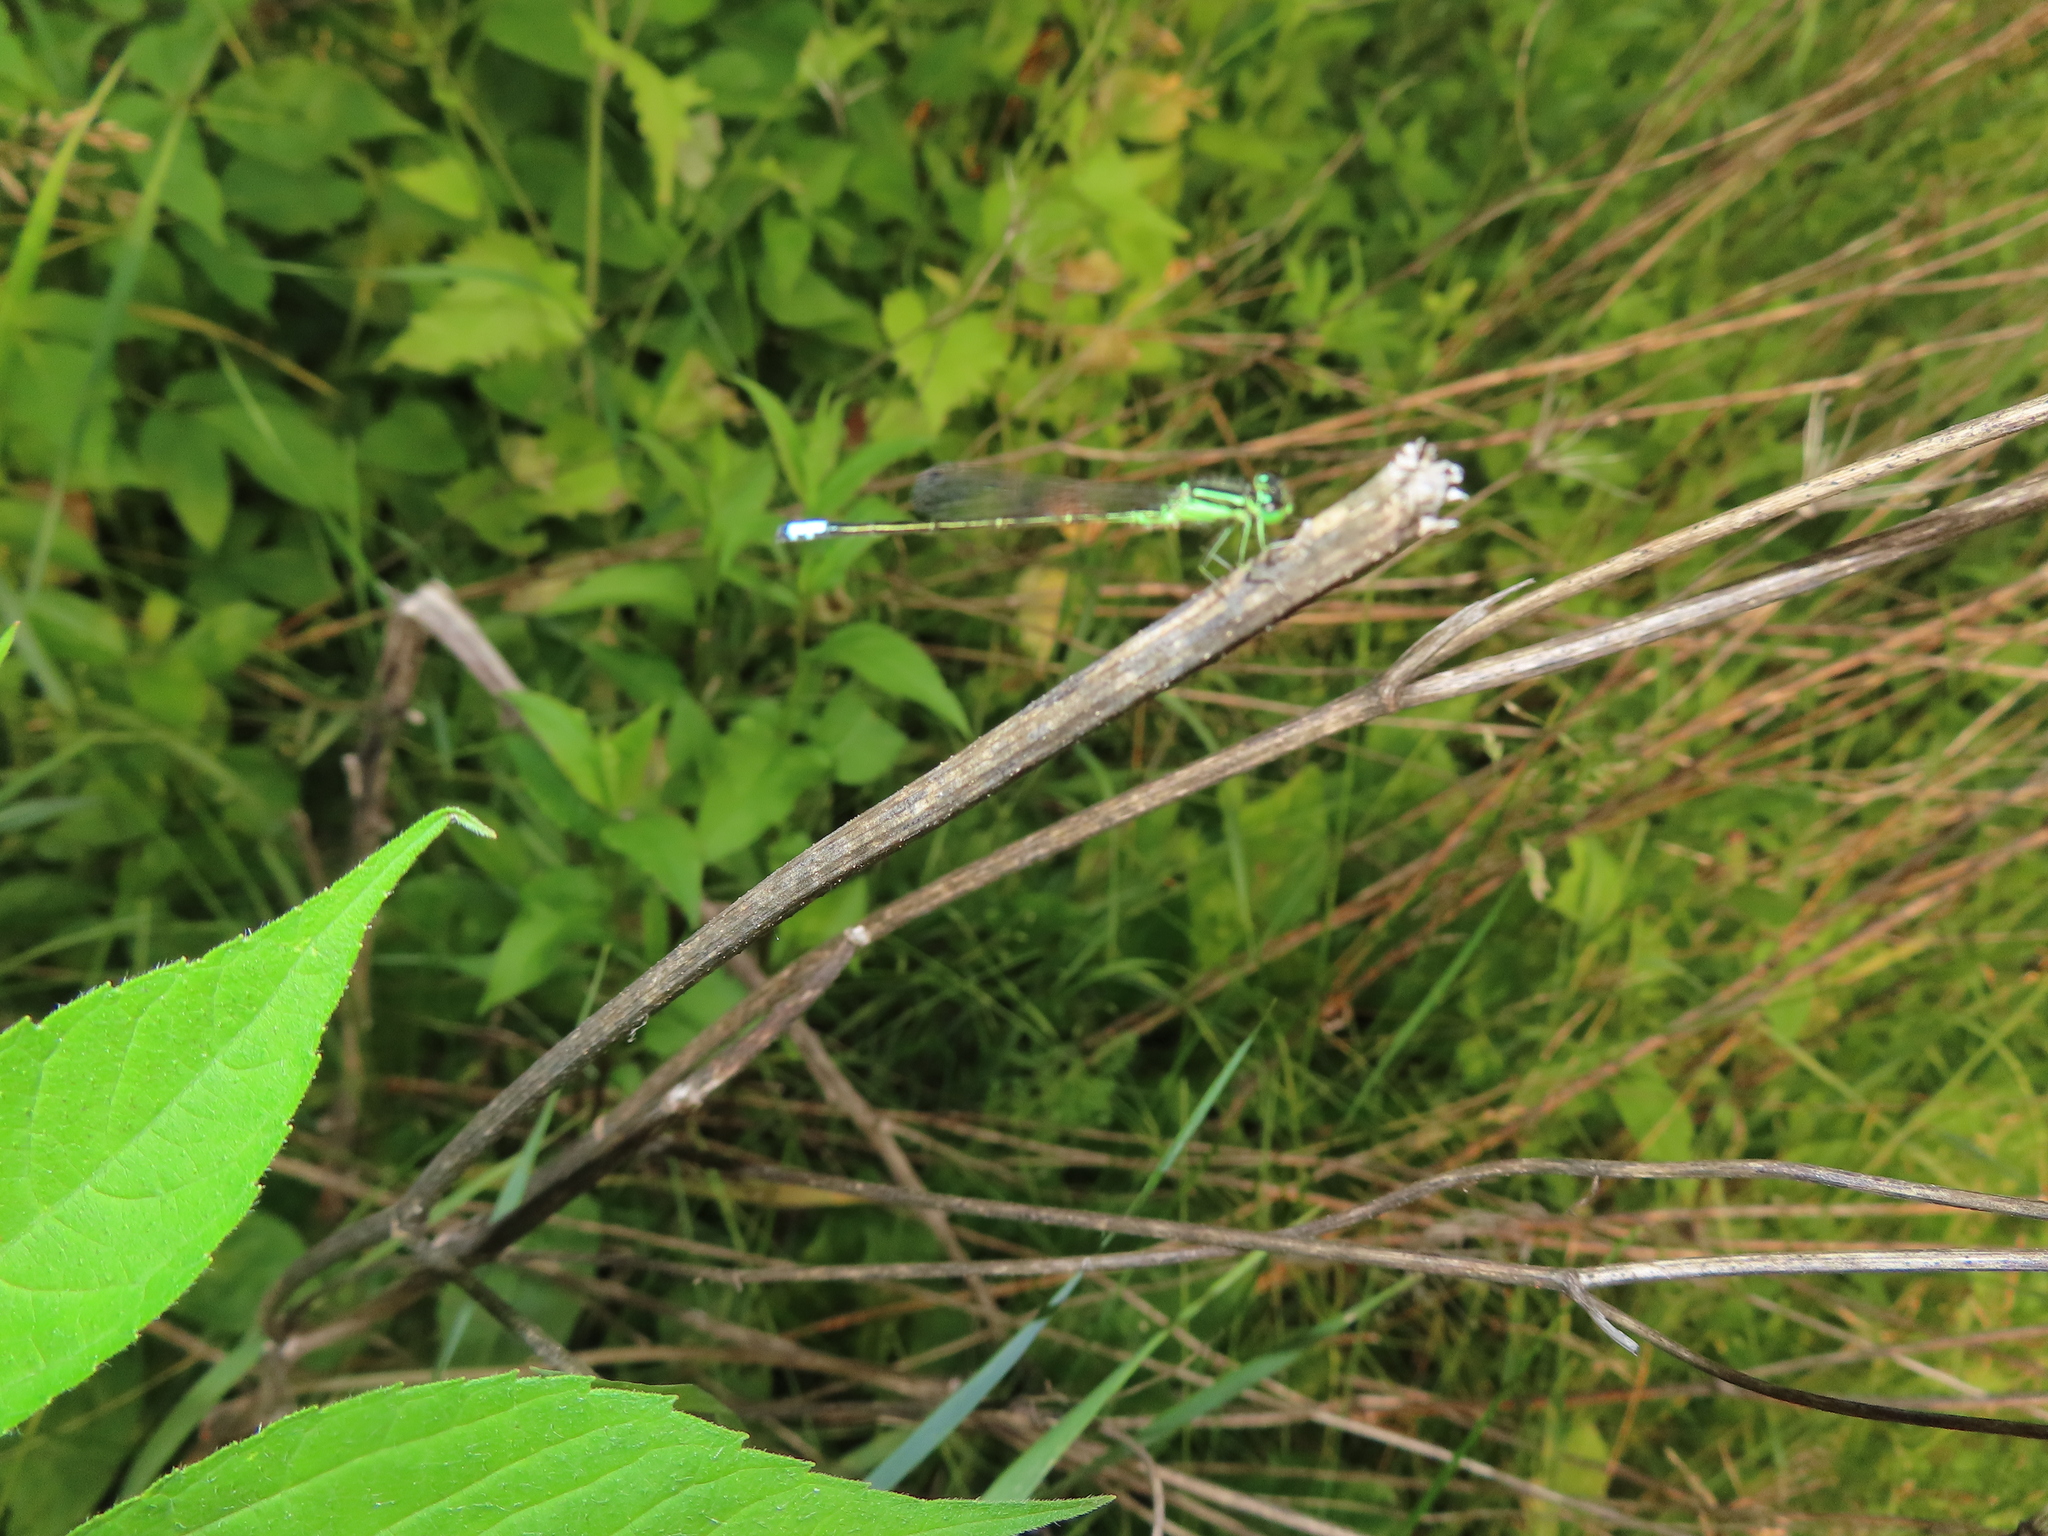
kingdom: Animalia
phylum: Arthropoda
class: Insecta
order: Odonata
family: Coenagrionidae
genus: Ischnura
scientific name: Ischnura verticalis
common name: Eastern forktail
